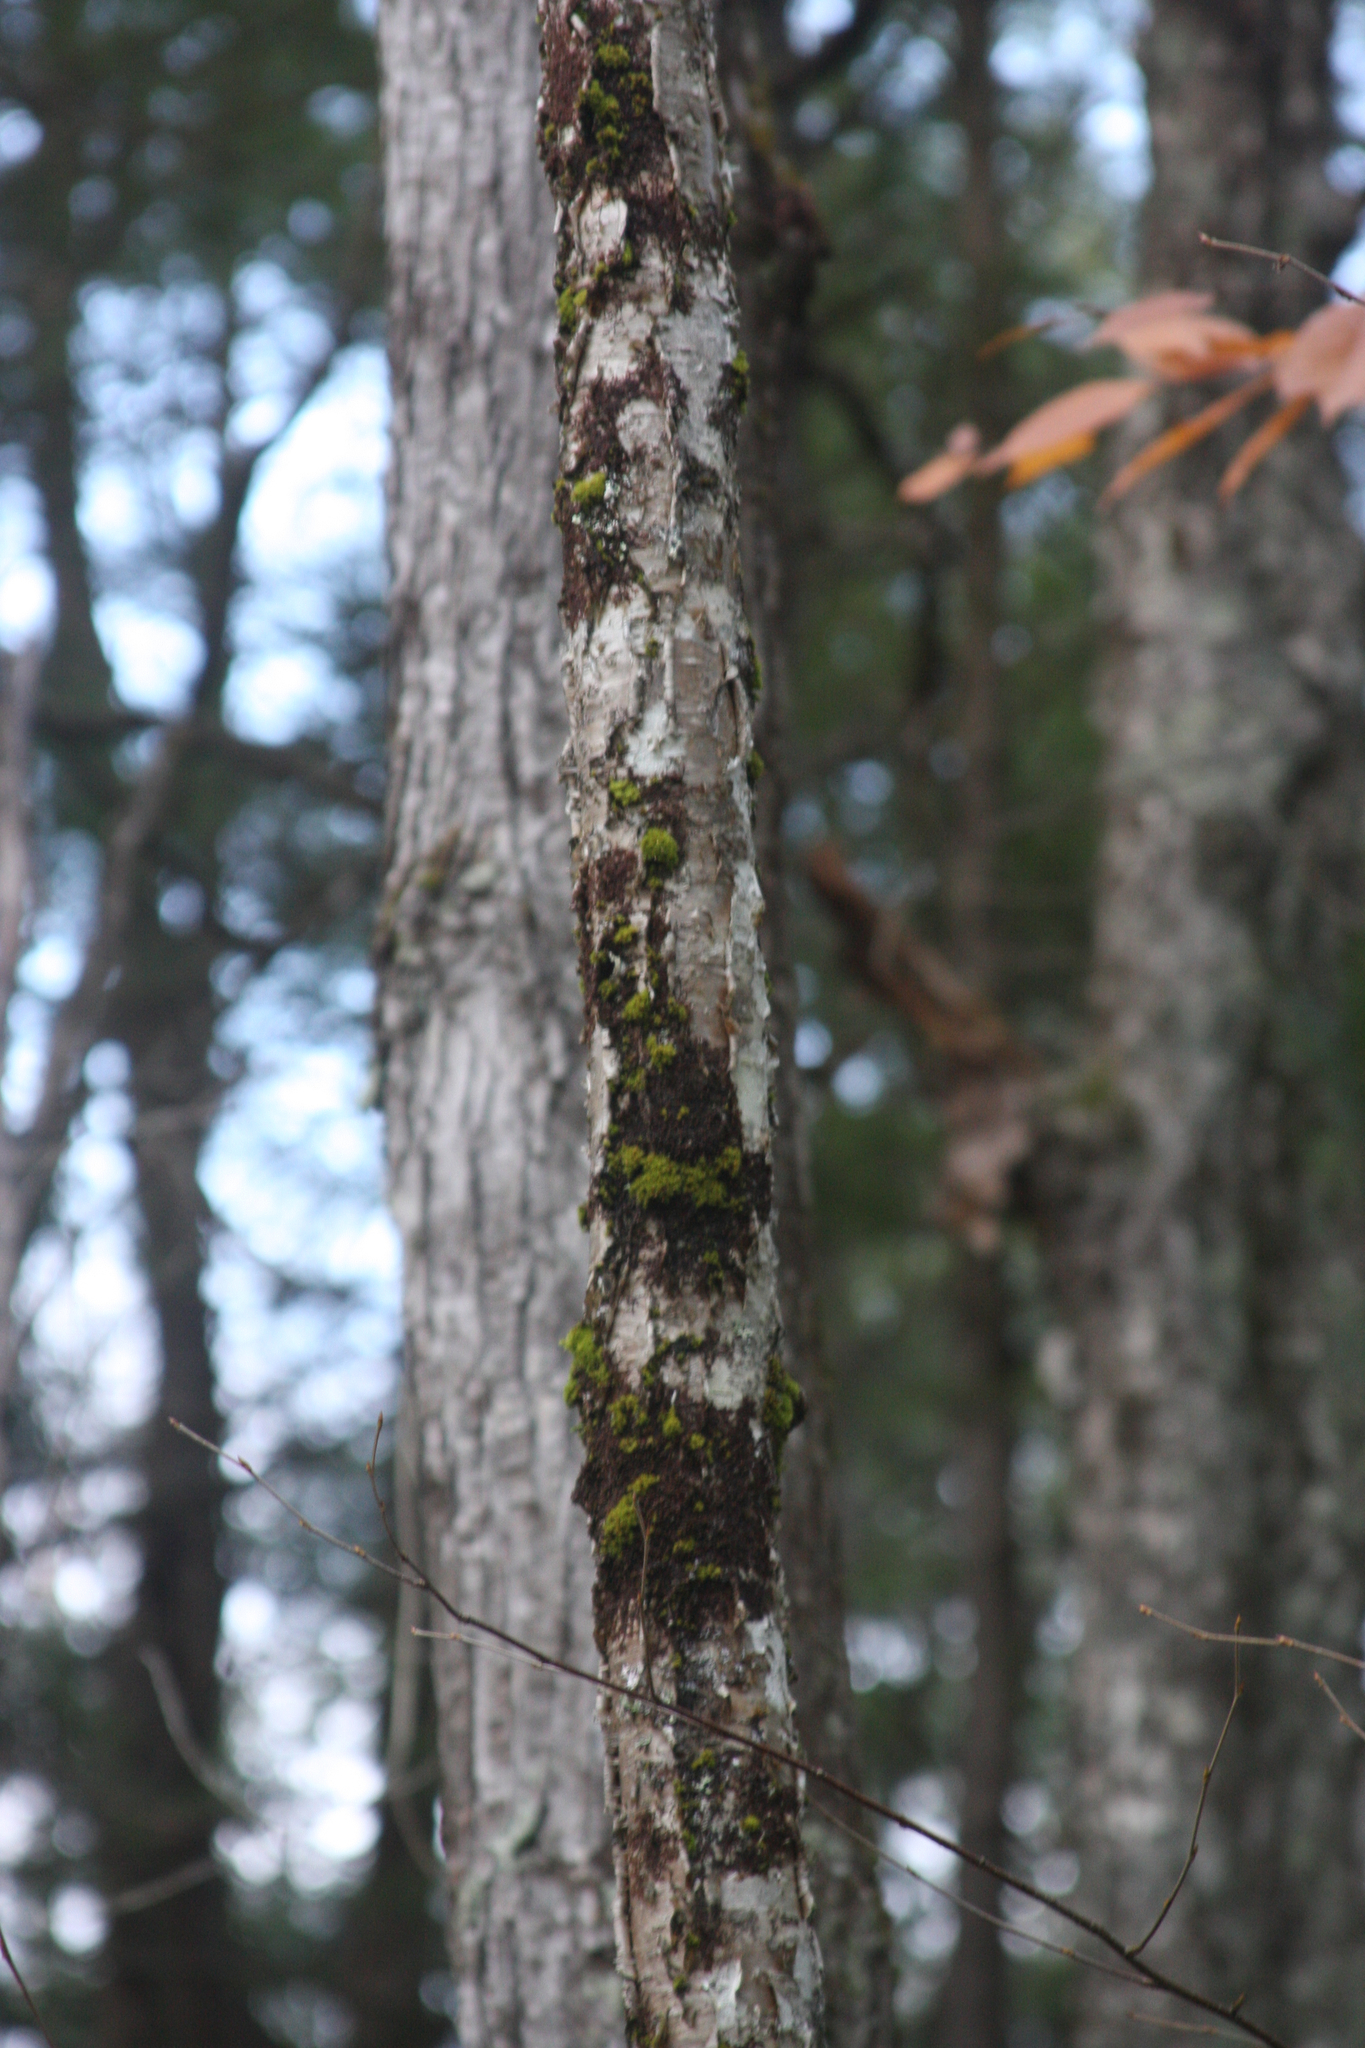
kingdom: Plantae
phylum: Tracheophyta
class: Magnoliopsida
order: Fagales
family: Betulaceae
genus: Betula
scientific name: Betula alleghaniensis
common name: Yellow birch
